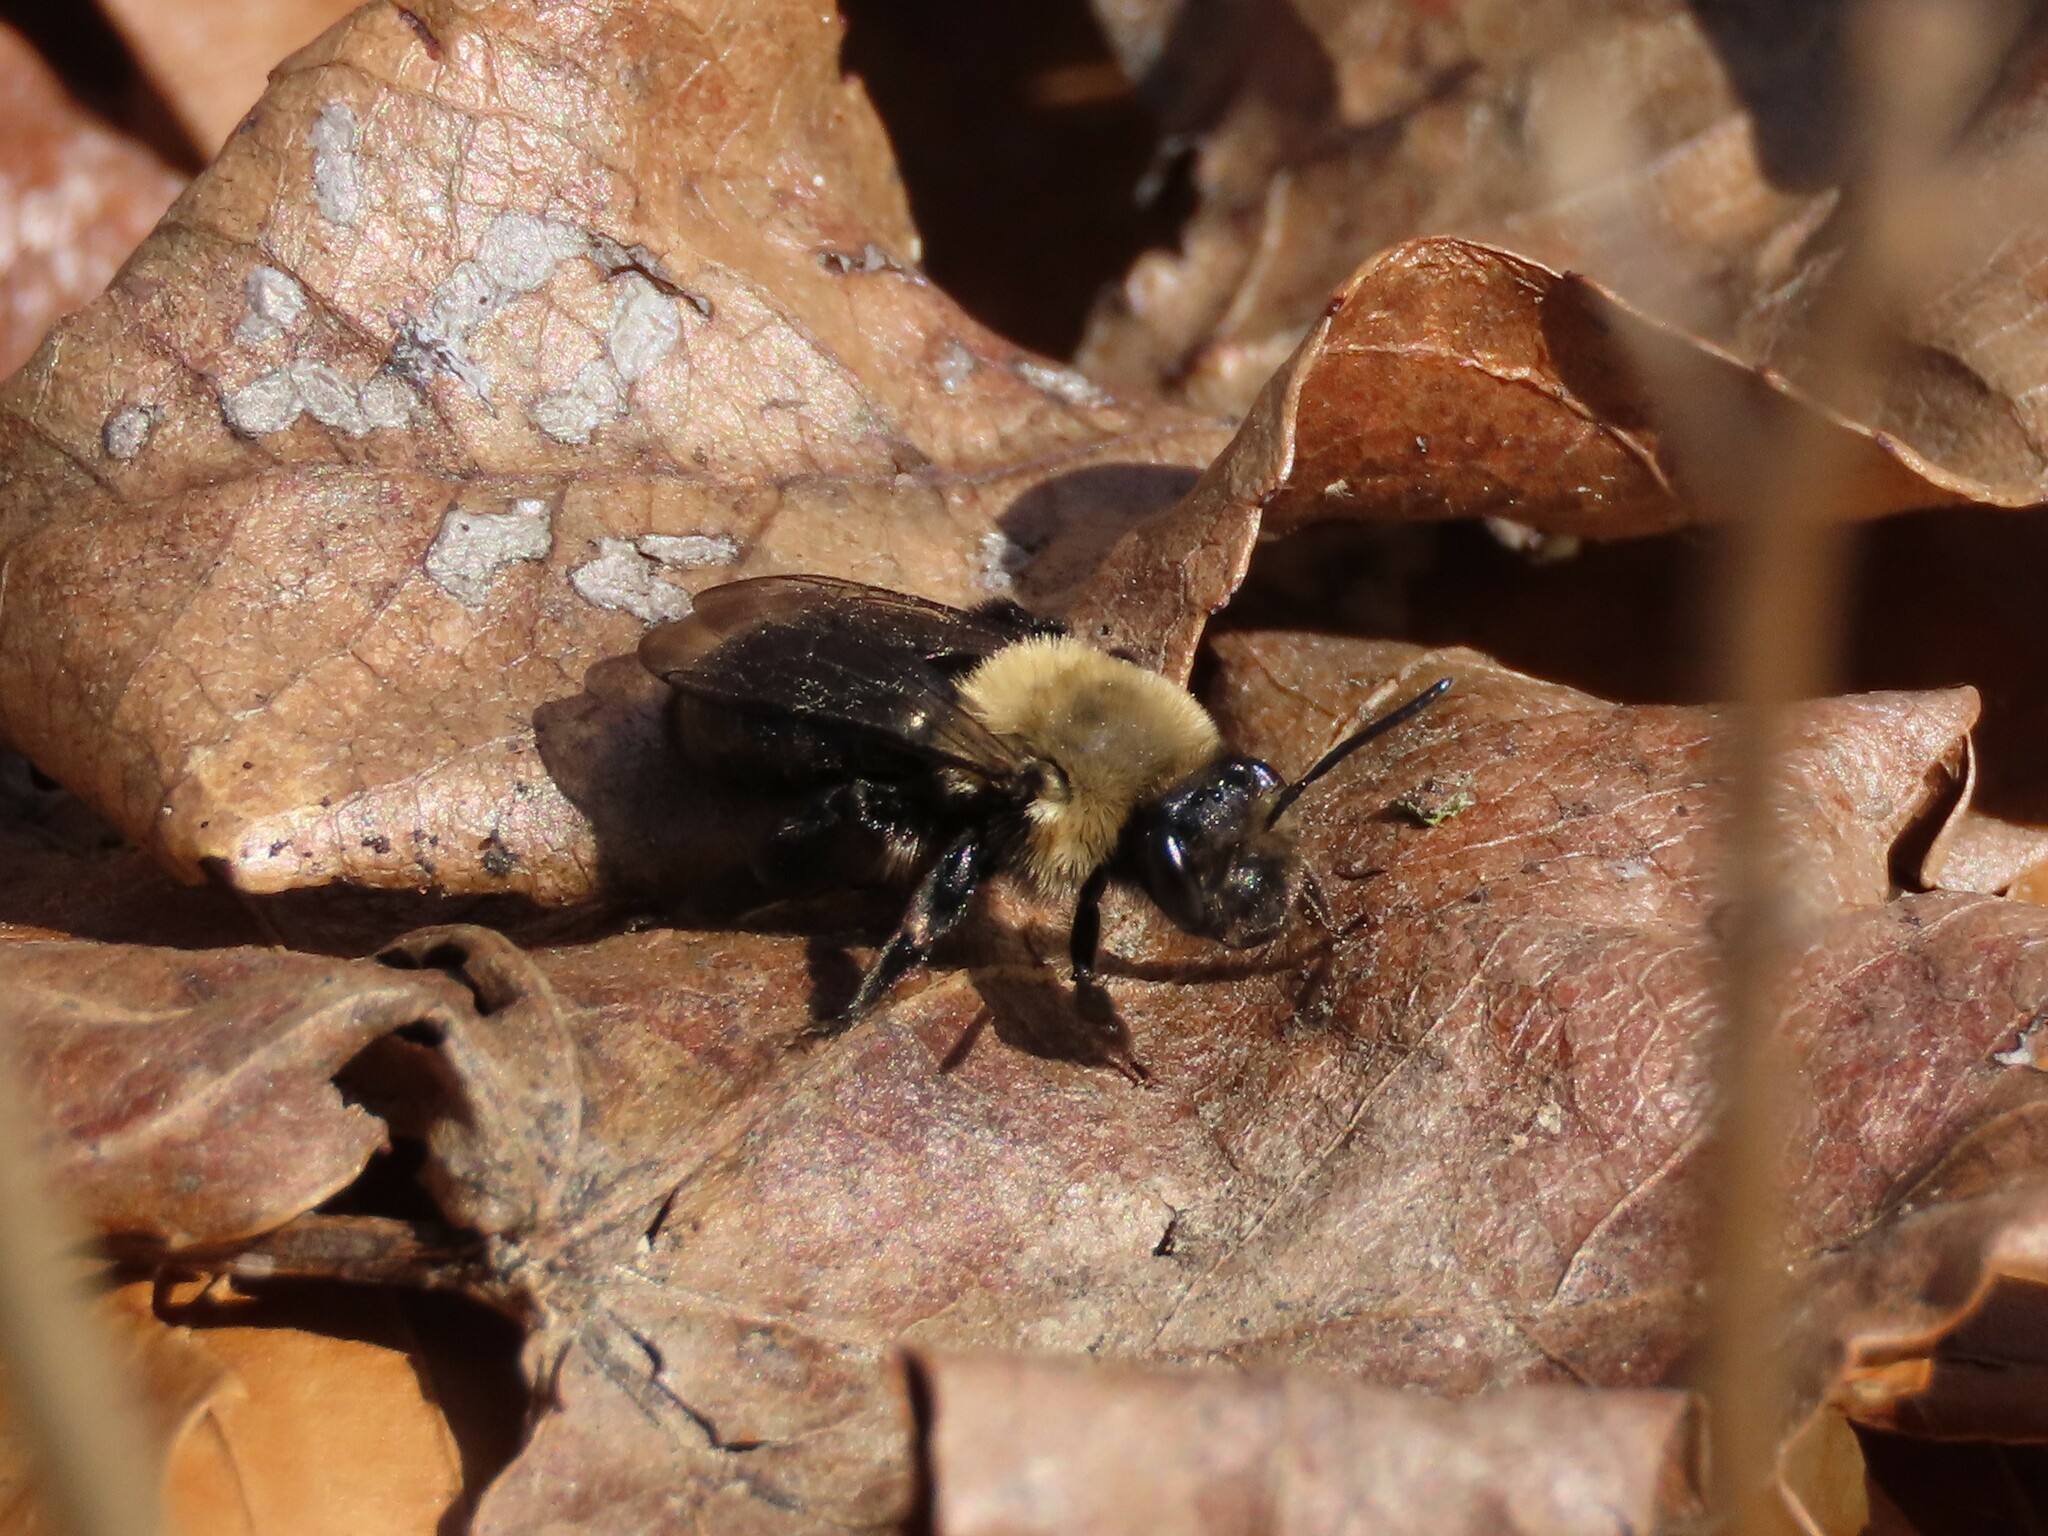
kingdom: Animalia
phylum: Arthropoda
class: Insecta
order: Hymenoptera
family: Andrenidae
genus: Andrena
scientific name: Andrena carlini
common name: Carlin's mining bee
